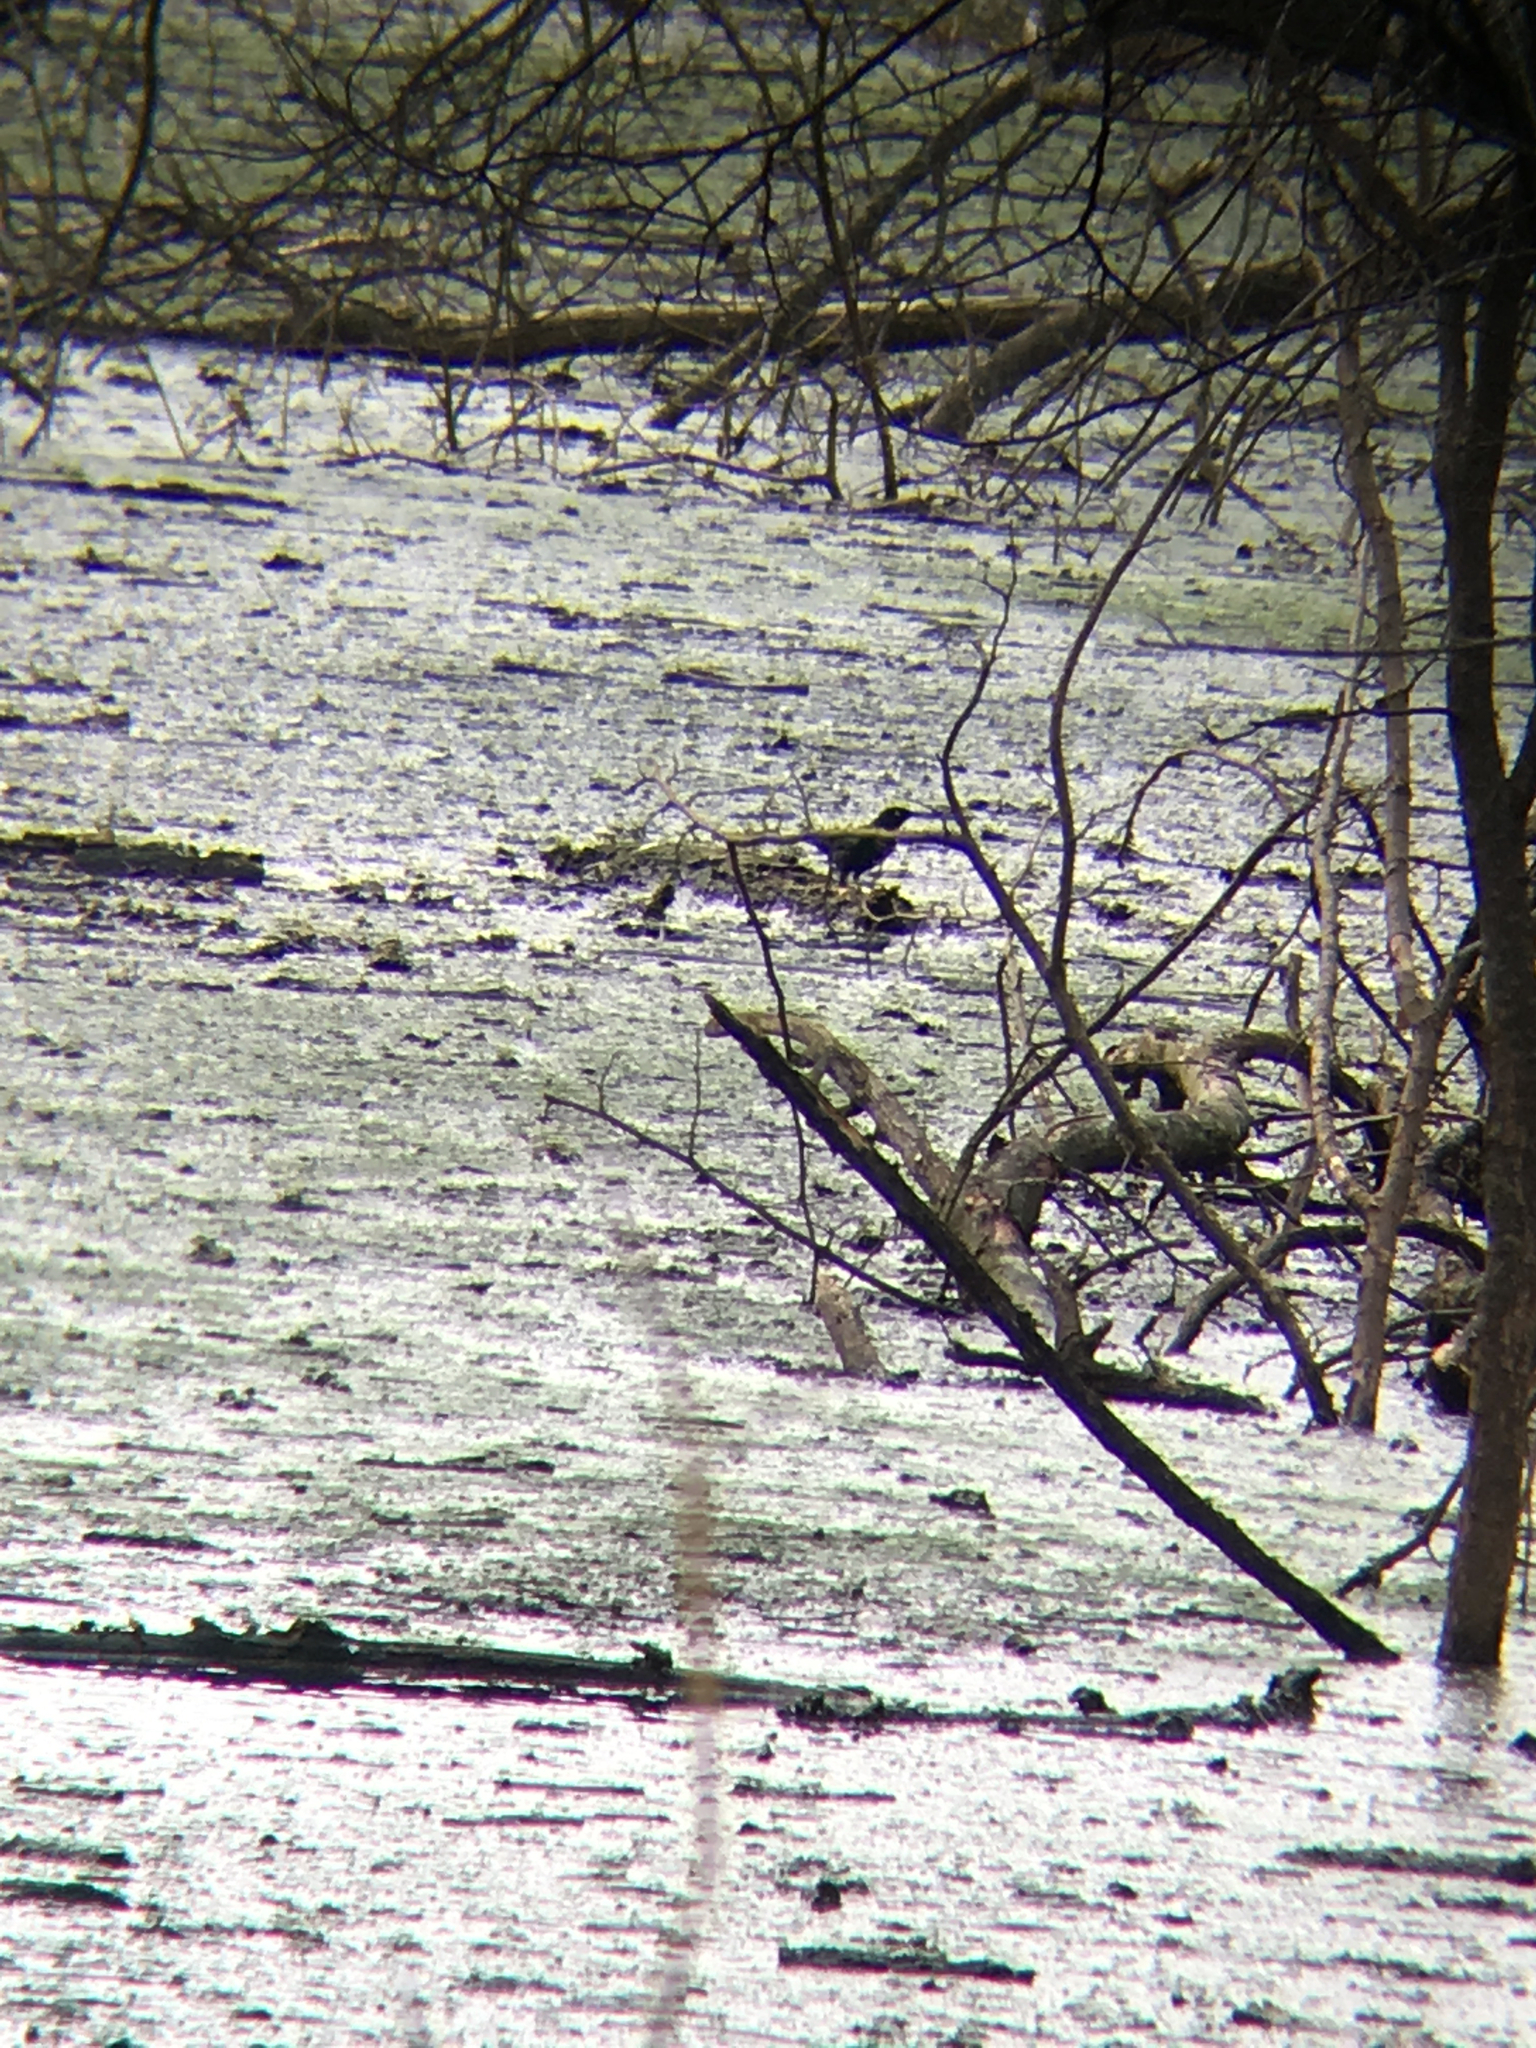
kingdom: Animalia
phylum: Chordata
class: Aves
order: Passeriformes
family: Icteridae
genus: Euphagus
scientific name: Euphagus carolinus
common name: Rusty blackbird
